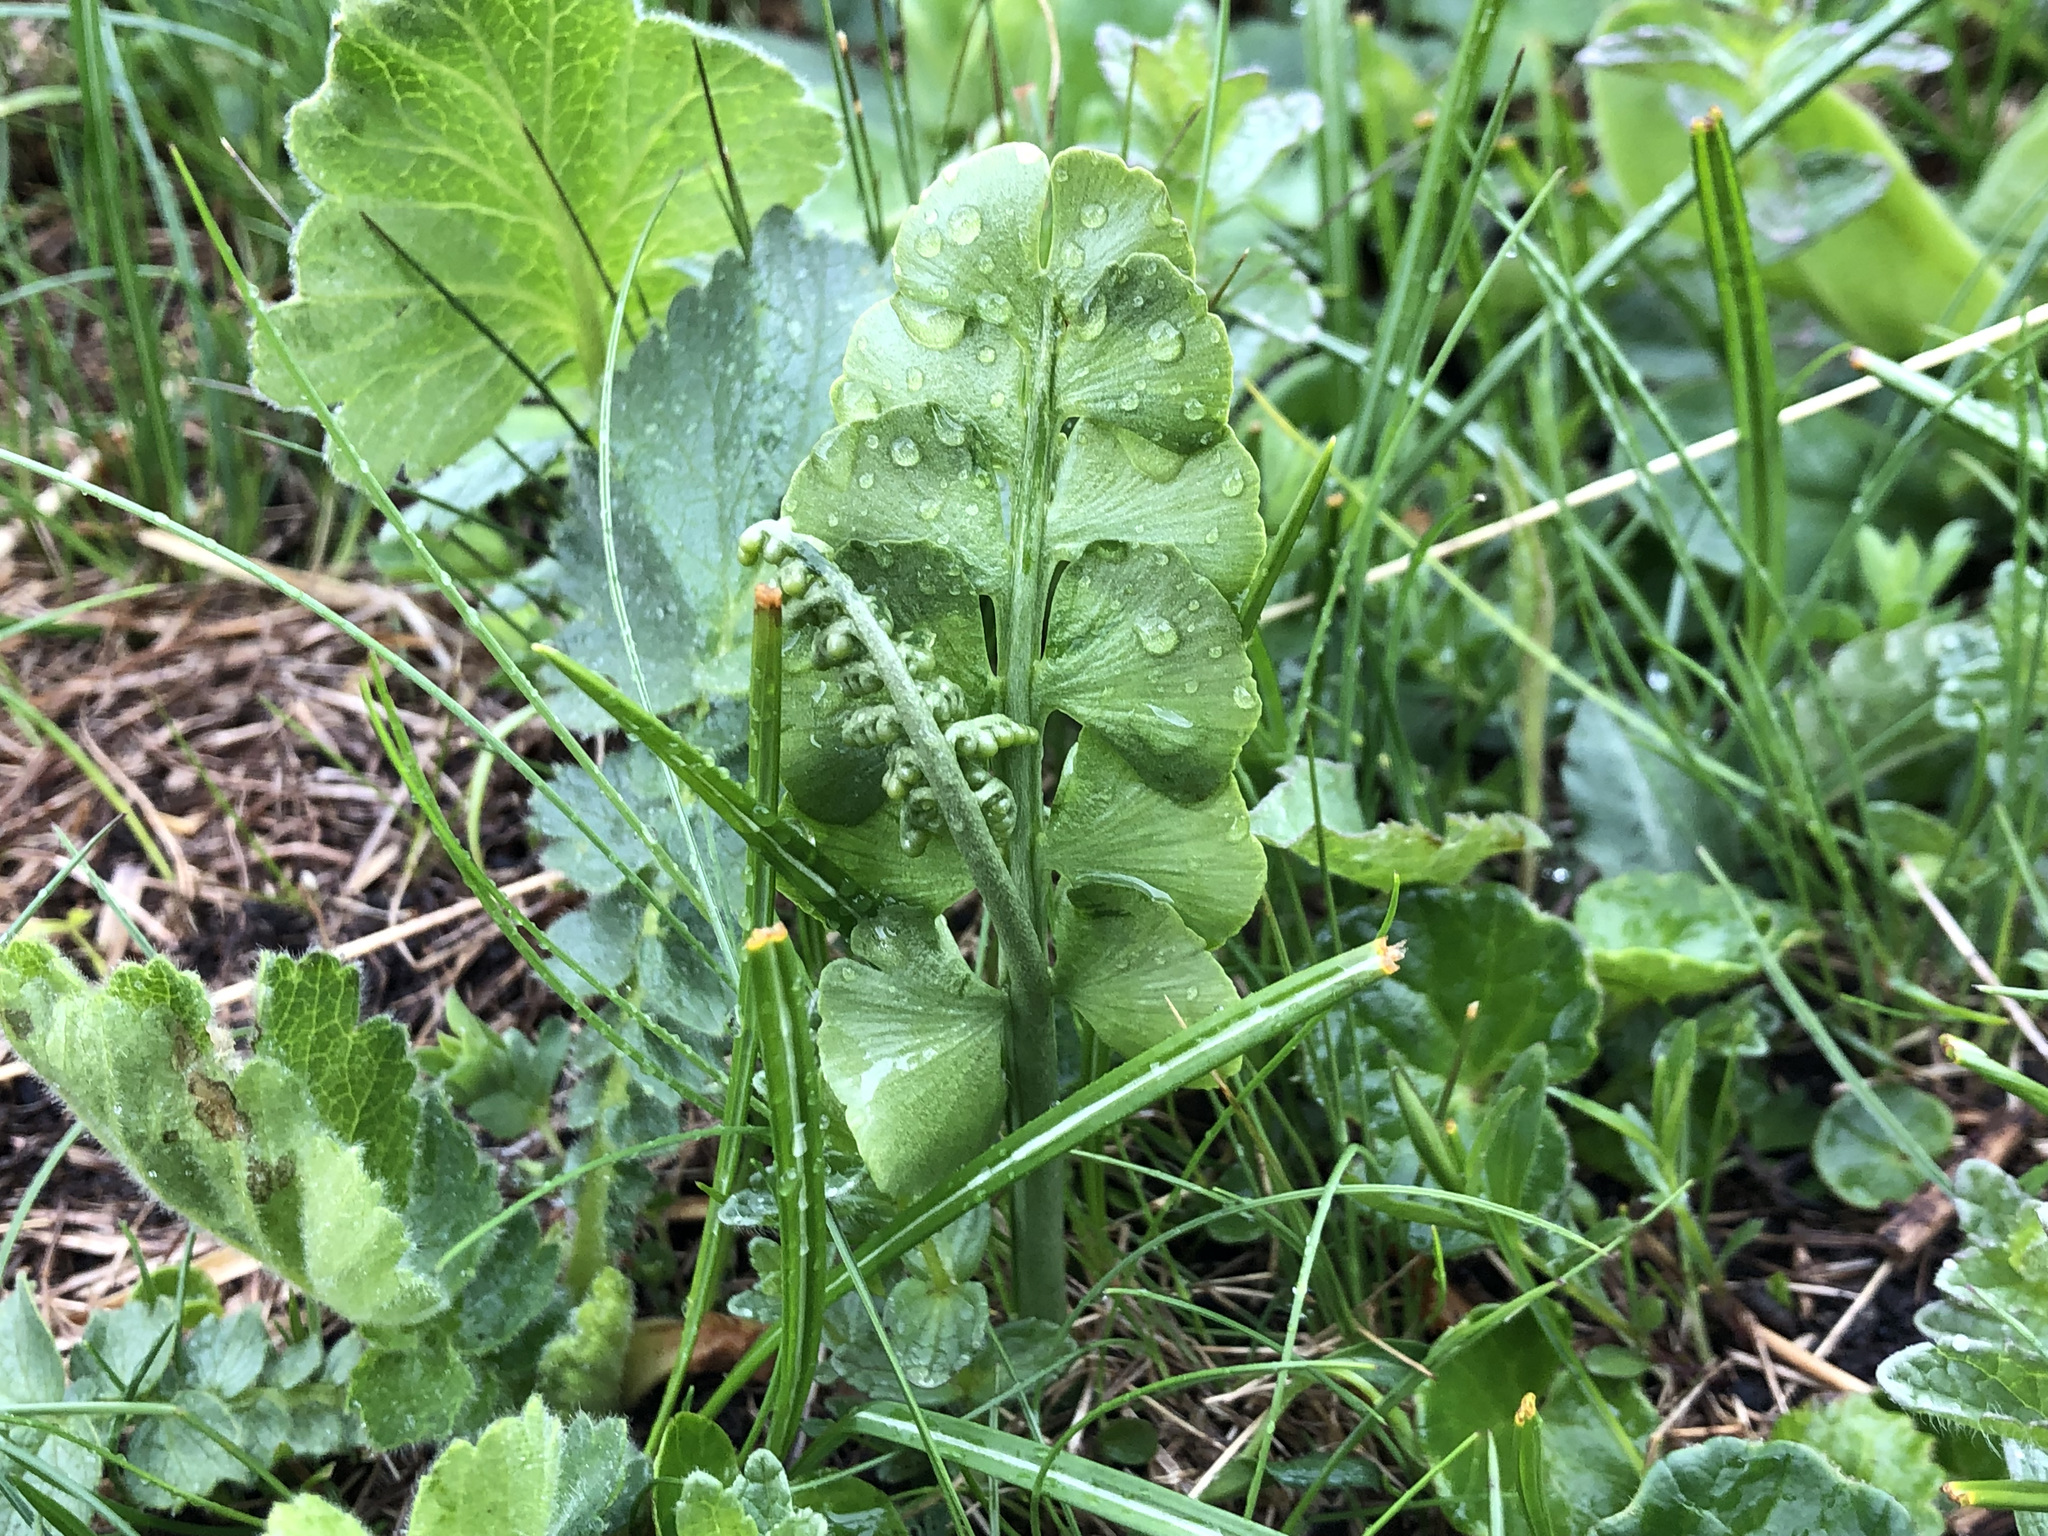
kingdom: Plantae
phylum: Tracheophyta
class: Polypodiopsida
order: Ophioglossales
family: Ophioglossaceae
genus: Botrychium
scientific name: Botrychium lunaria
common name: Moonwort
